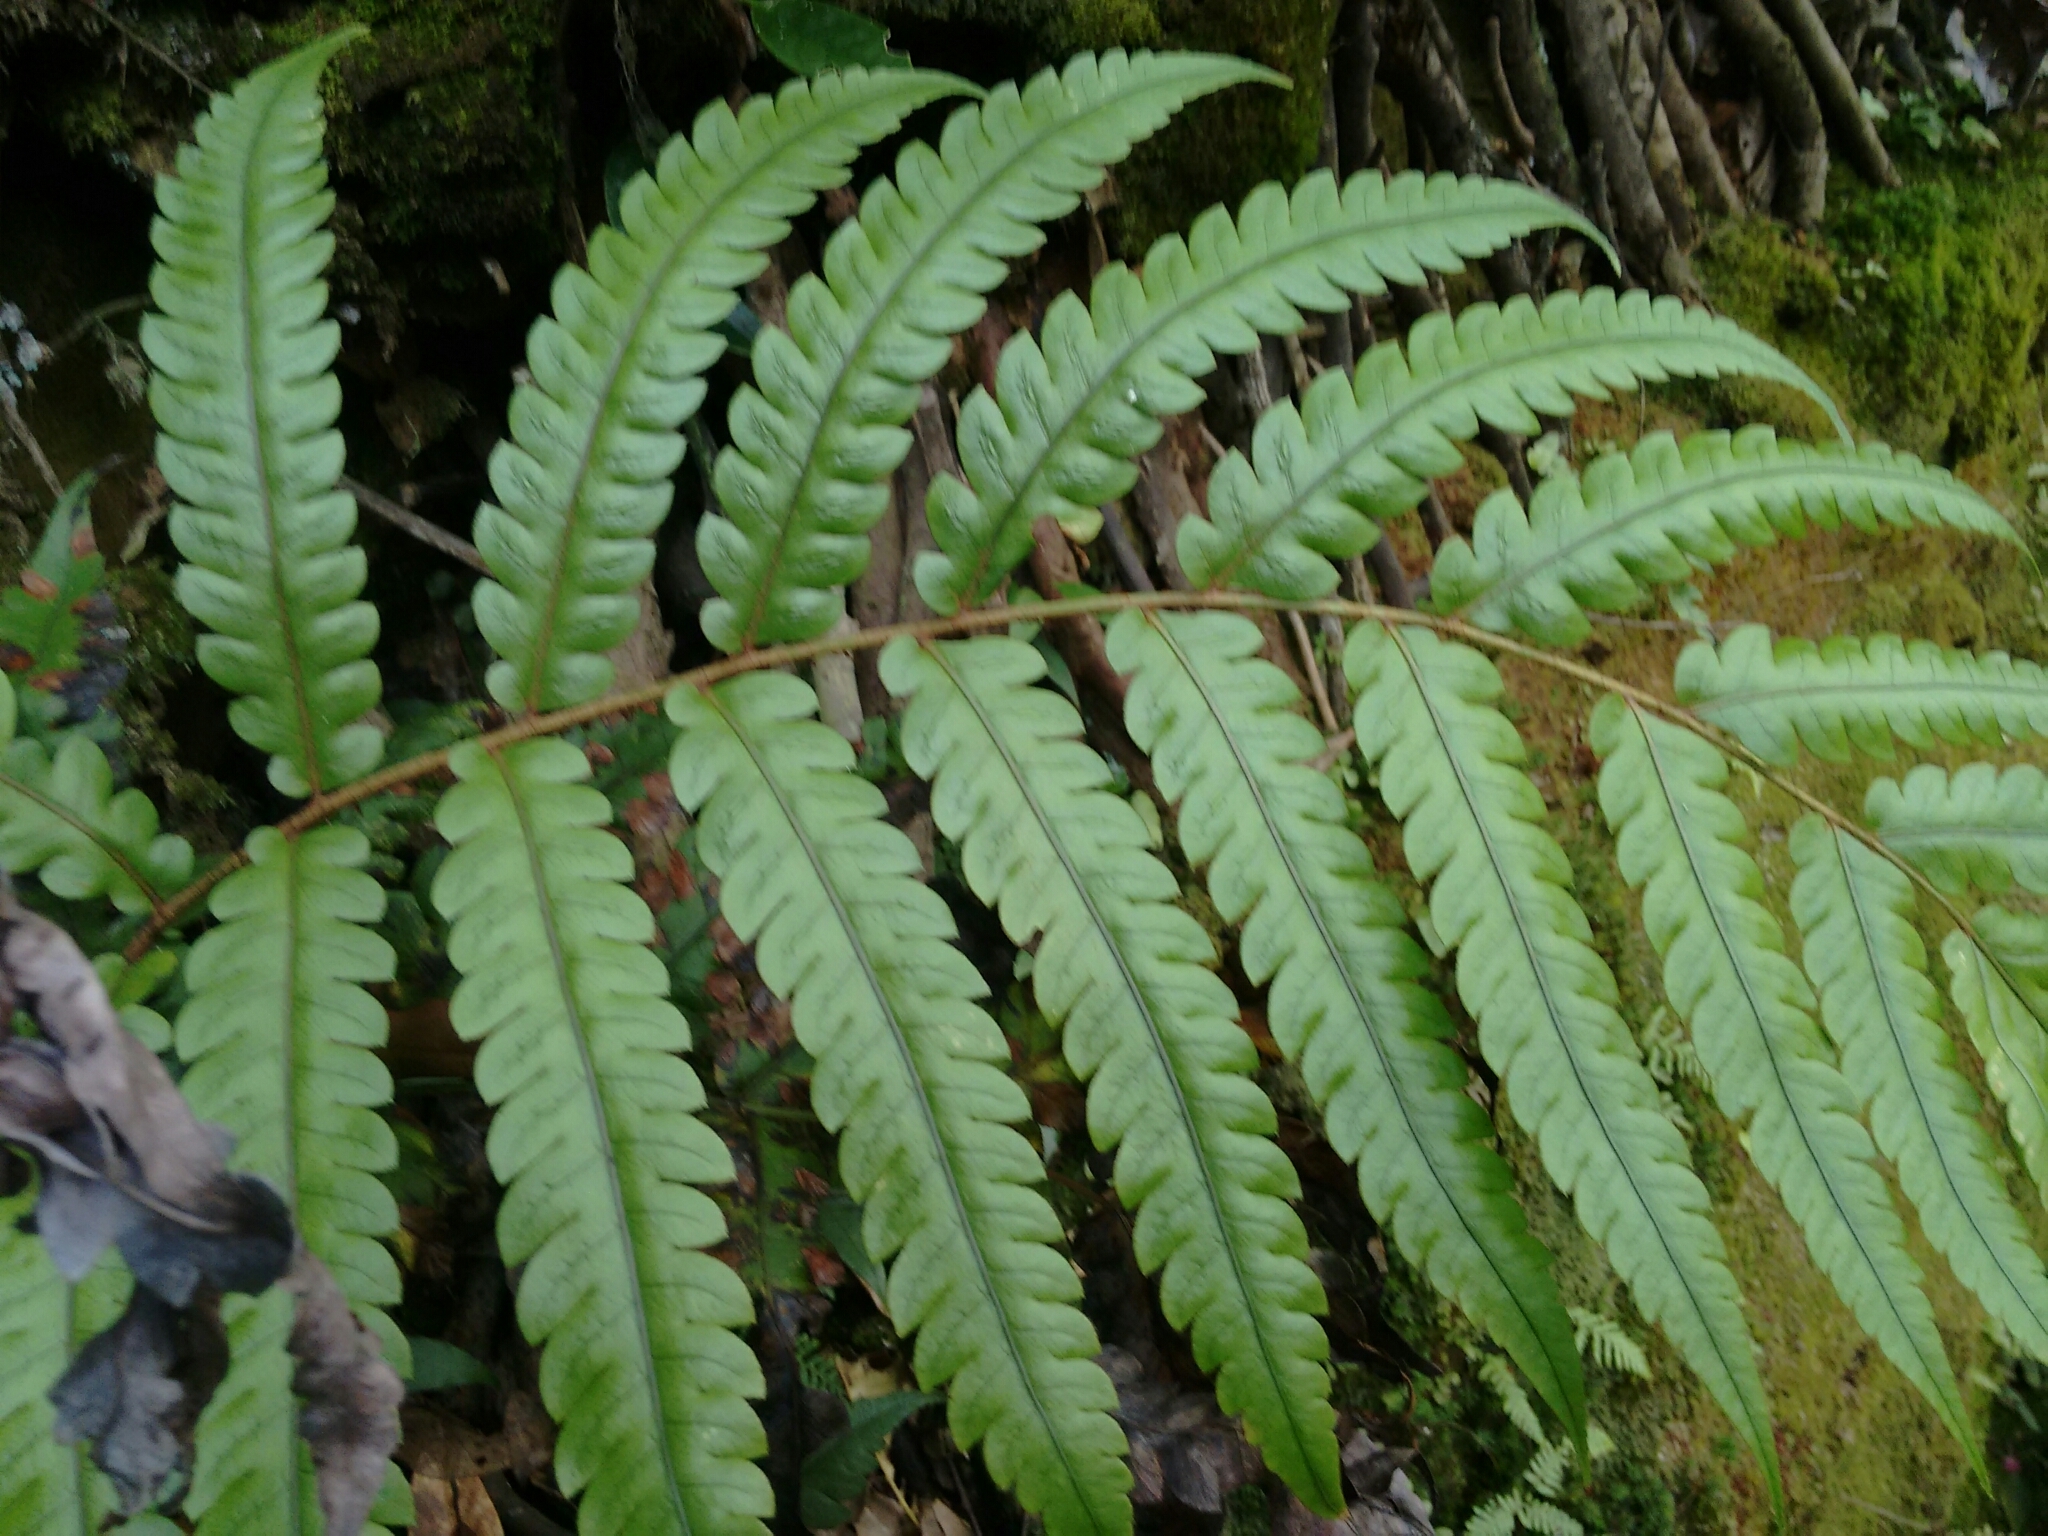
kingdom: Plantae
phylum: Tracheophyta
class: Polypodiopsida
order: Polypodiales
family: Blechnaceae
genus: Woodwardia
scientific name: Woodwardia japonica
